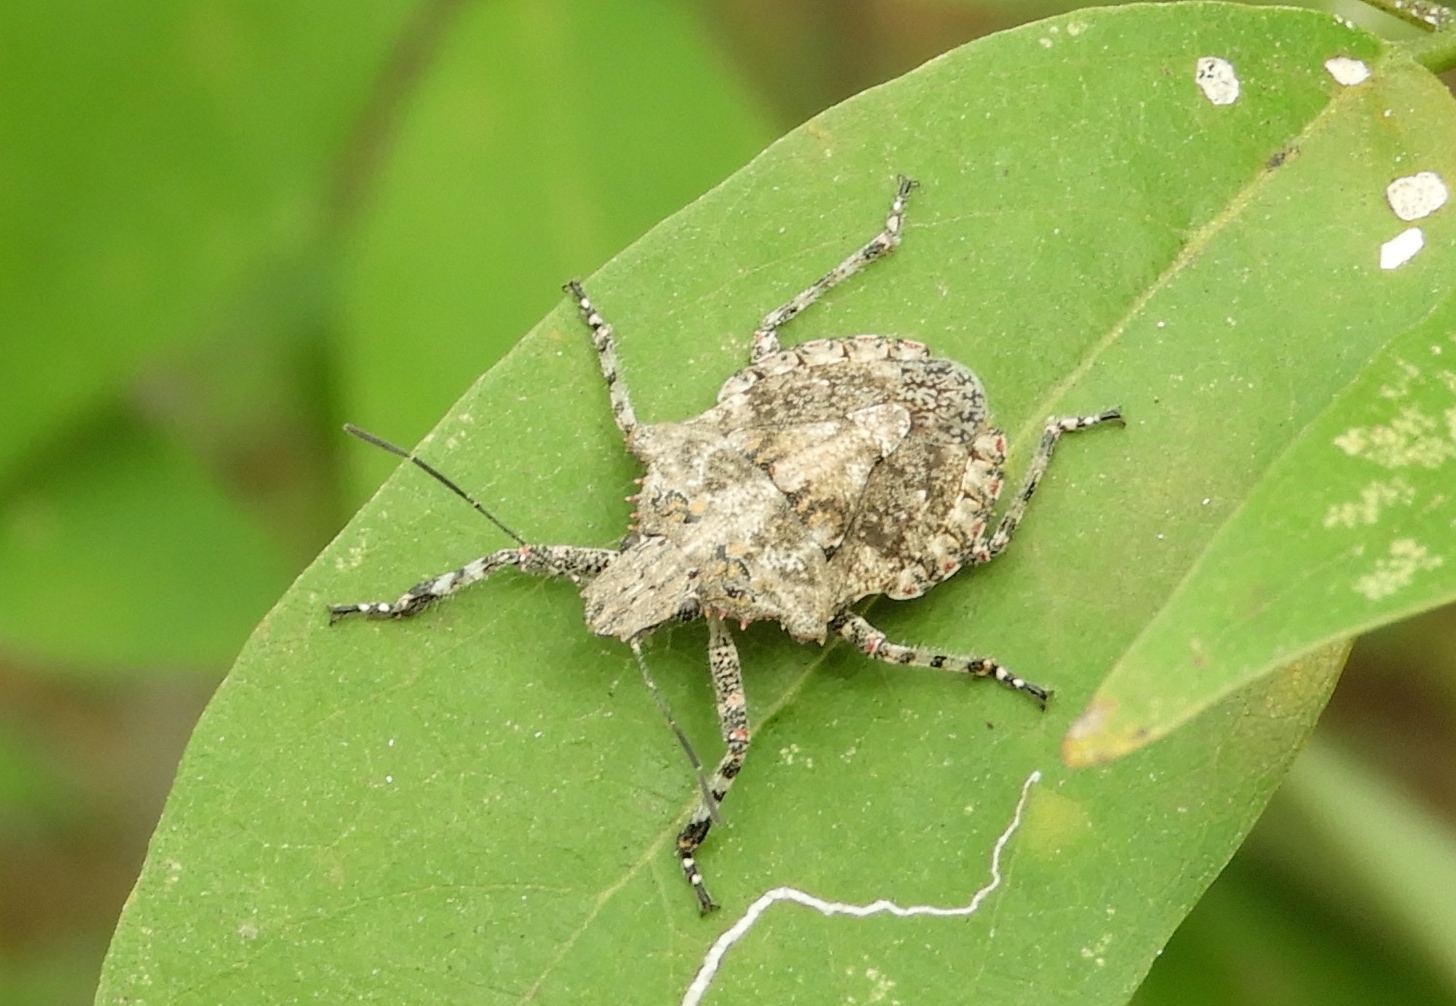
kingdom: Animalia
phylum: Arthropoda
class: Insecta
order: Hemiptera
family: Pentatomidae
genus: Brochymena
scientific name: Brochymena
